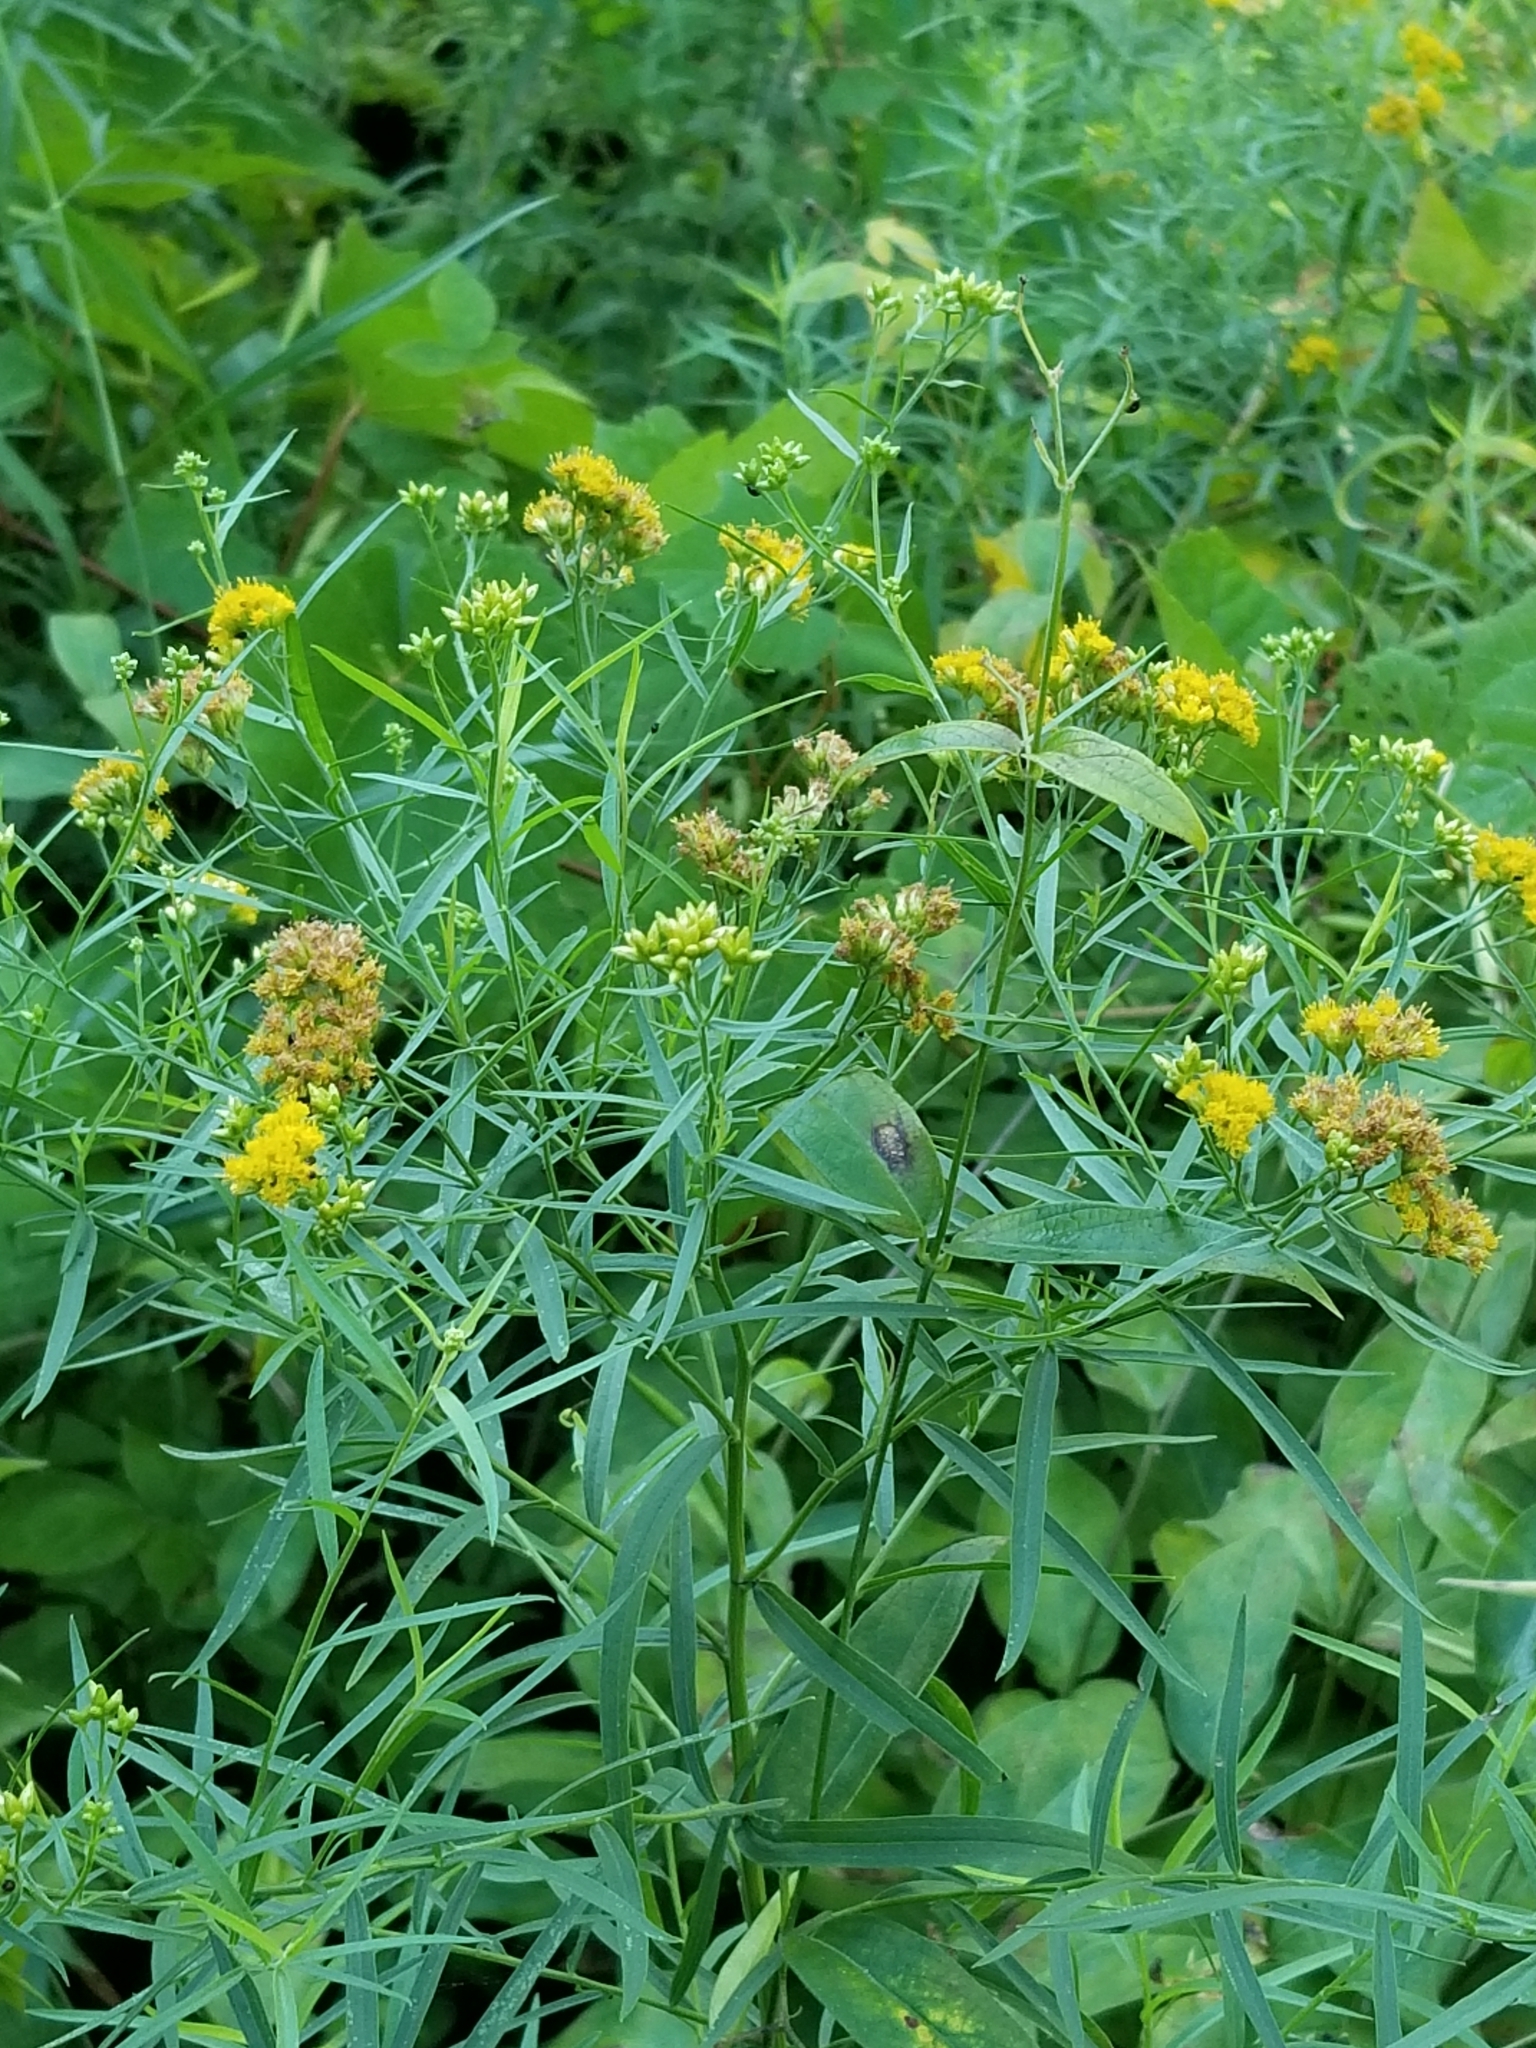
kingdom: Plantae
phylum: Tracheophyta
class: Magnoliopsida
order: Asterales
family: Asteraceae
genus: Euthamia
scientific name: Euthamia graminifolia
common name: Common goldentop
